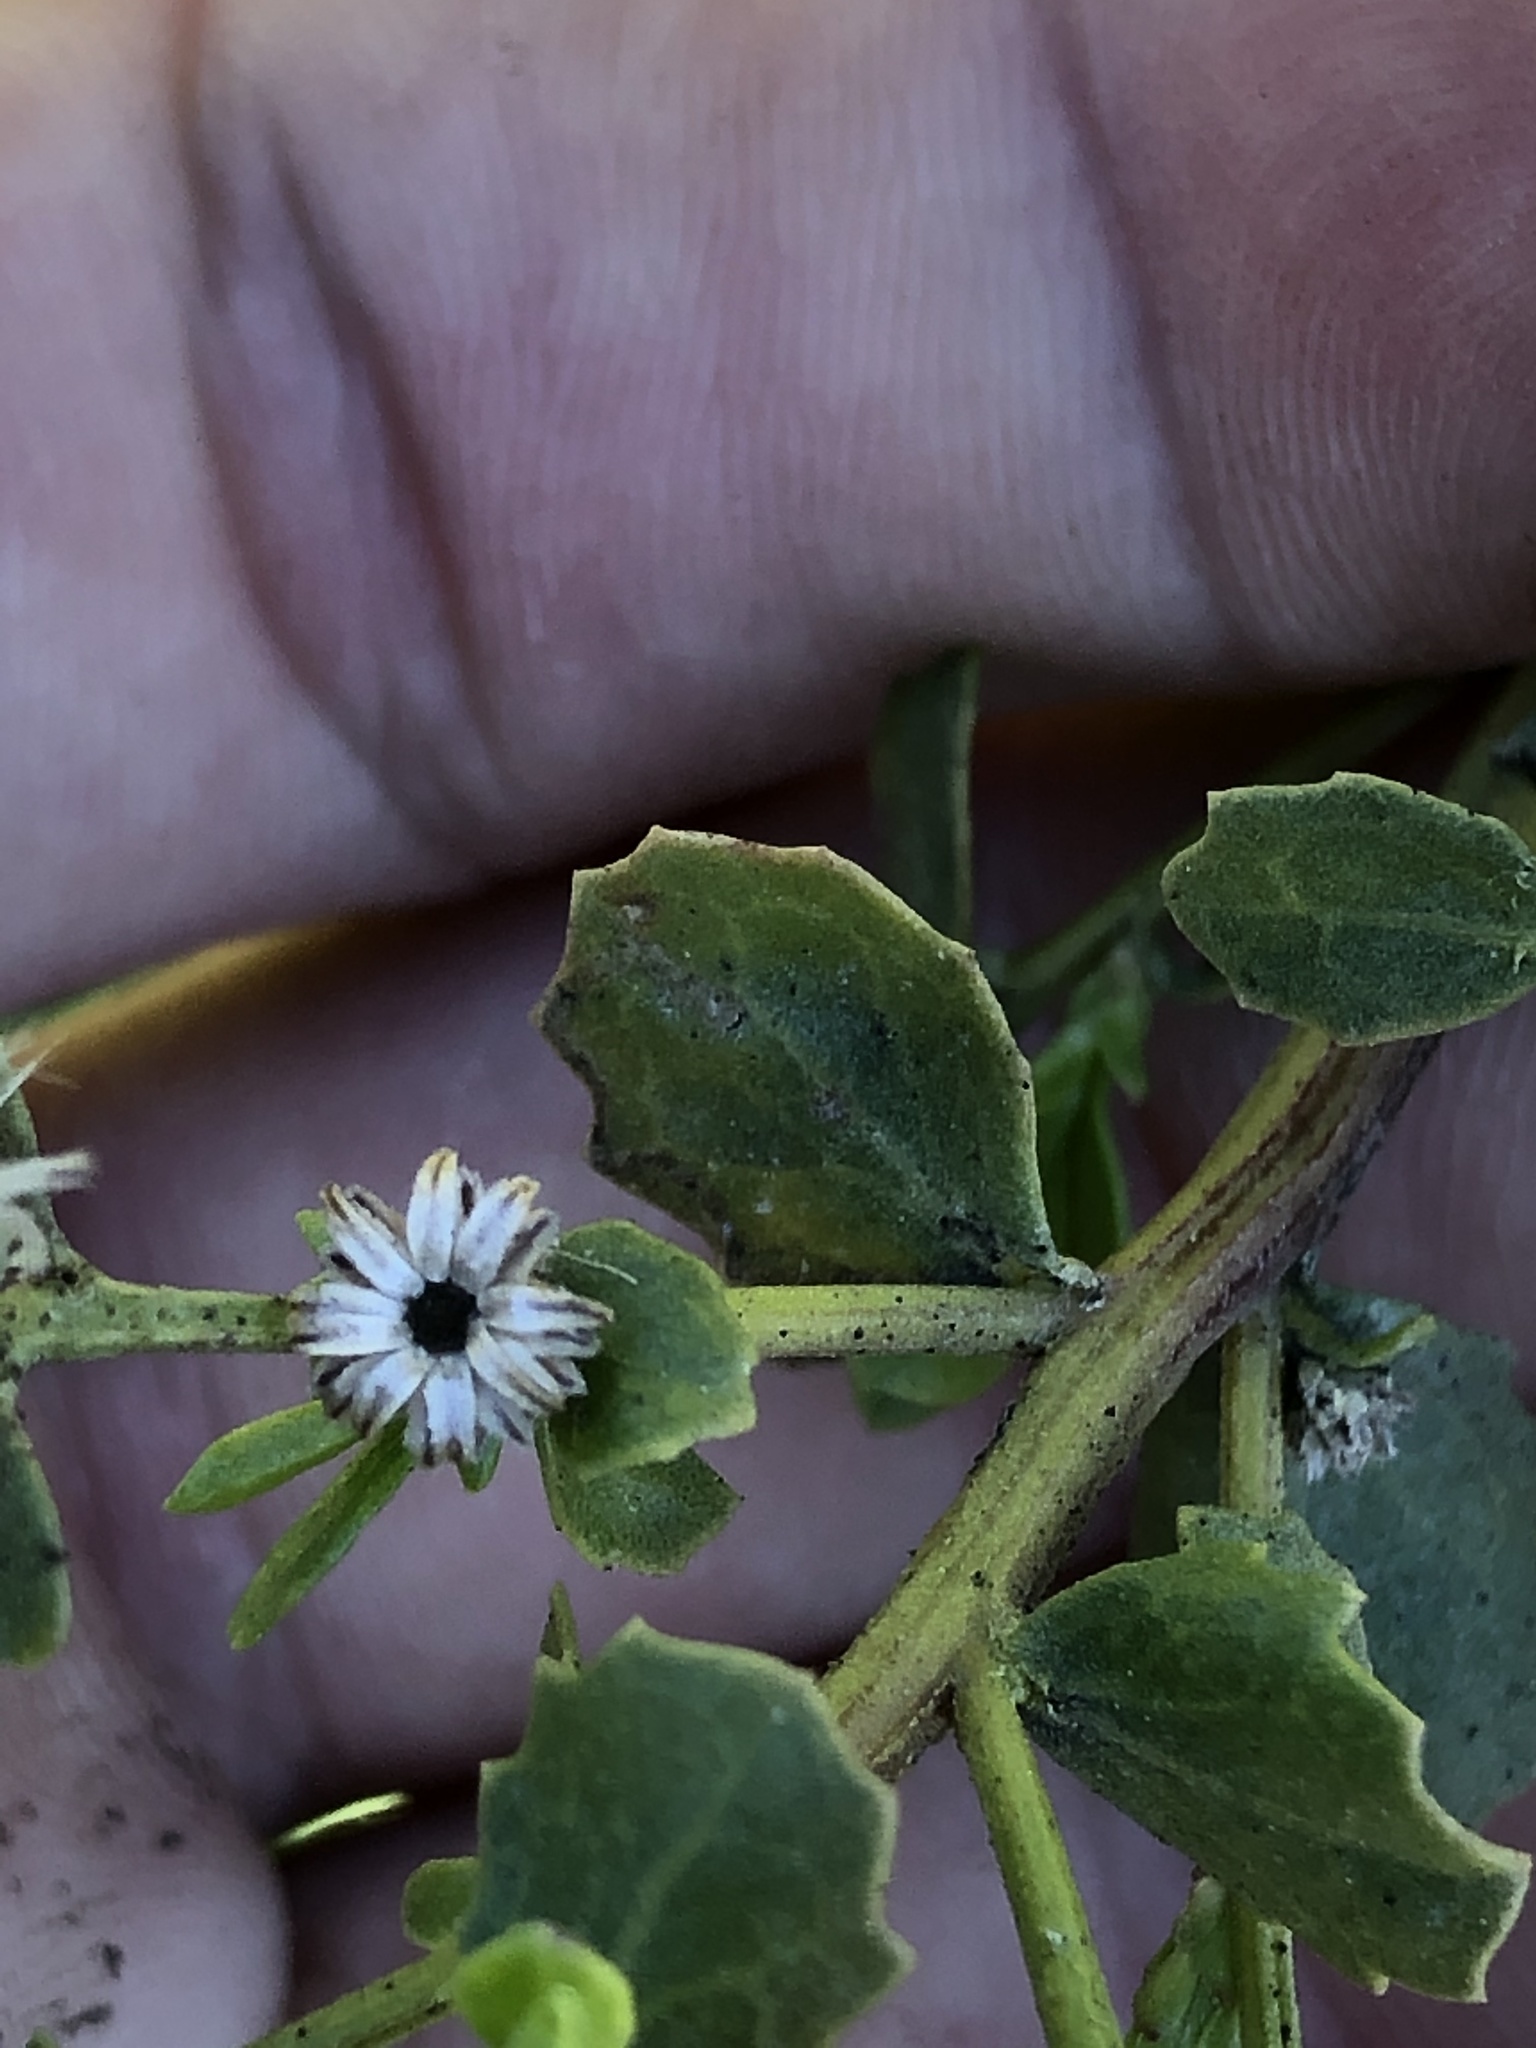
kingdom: Plantae
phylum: Tracheophyta
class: Magnoliopsida
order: Asterales
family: Asteraceae
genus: Baccharis
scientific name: Baccharis pilularis
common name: Coyotebrush
